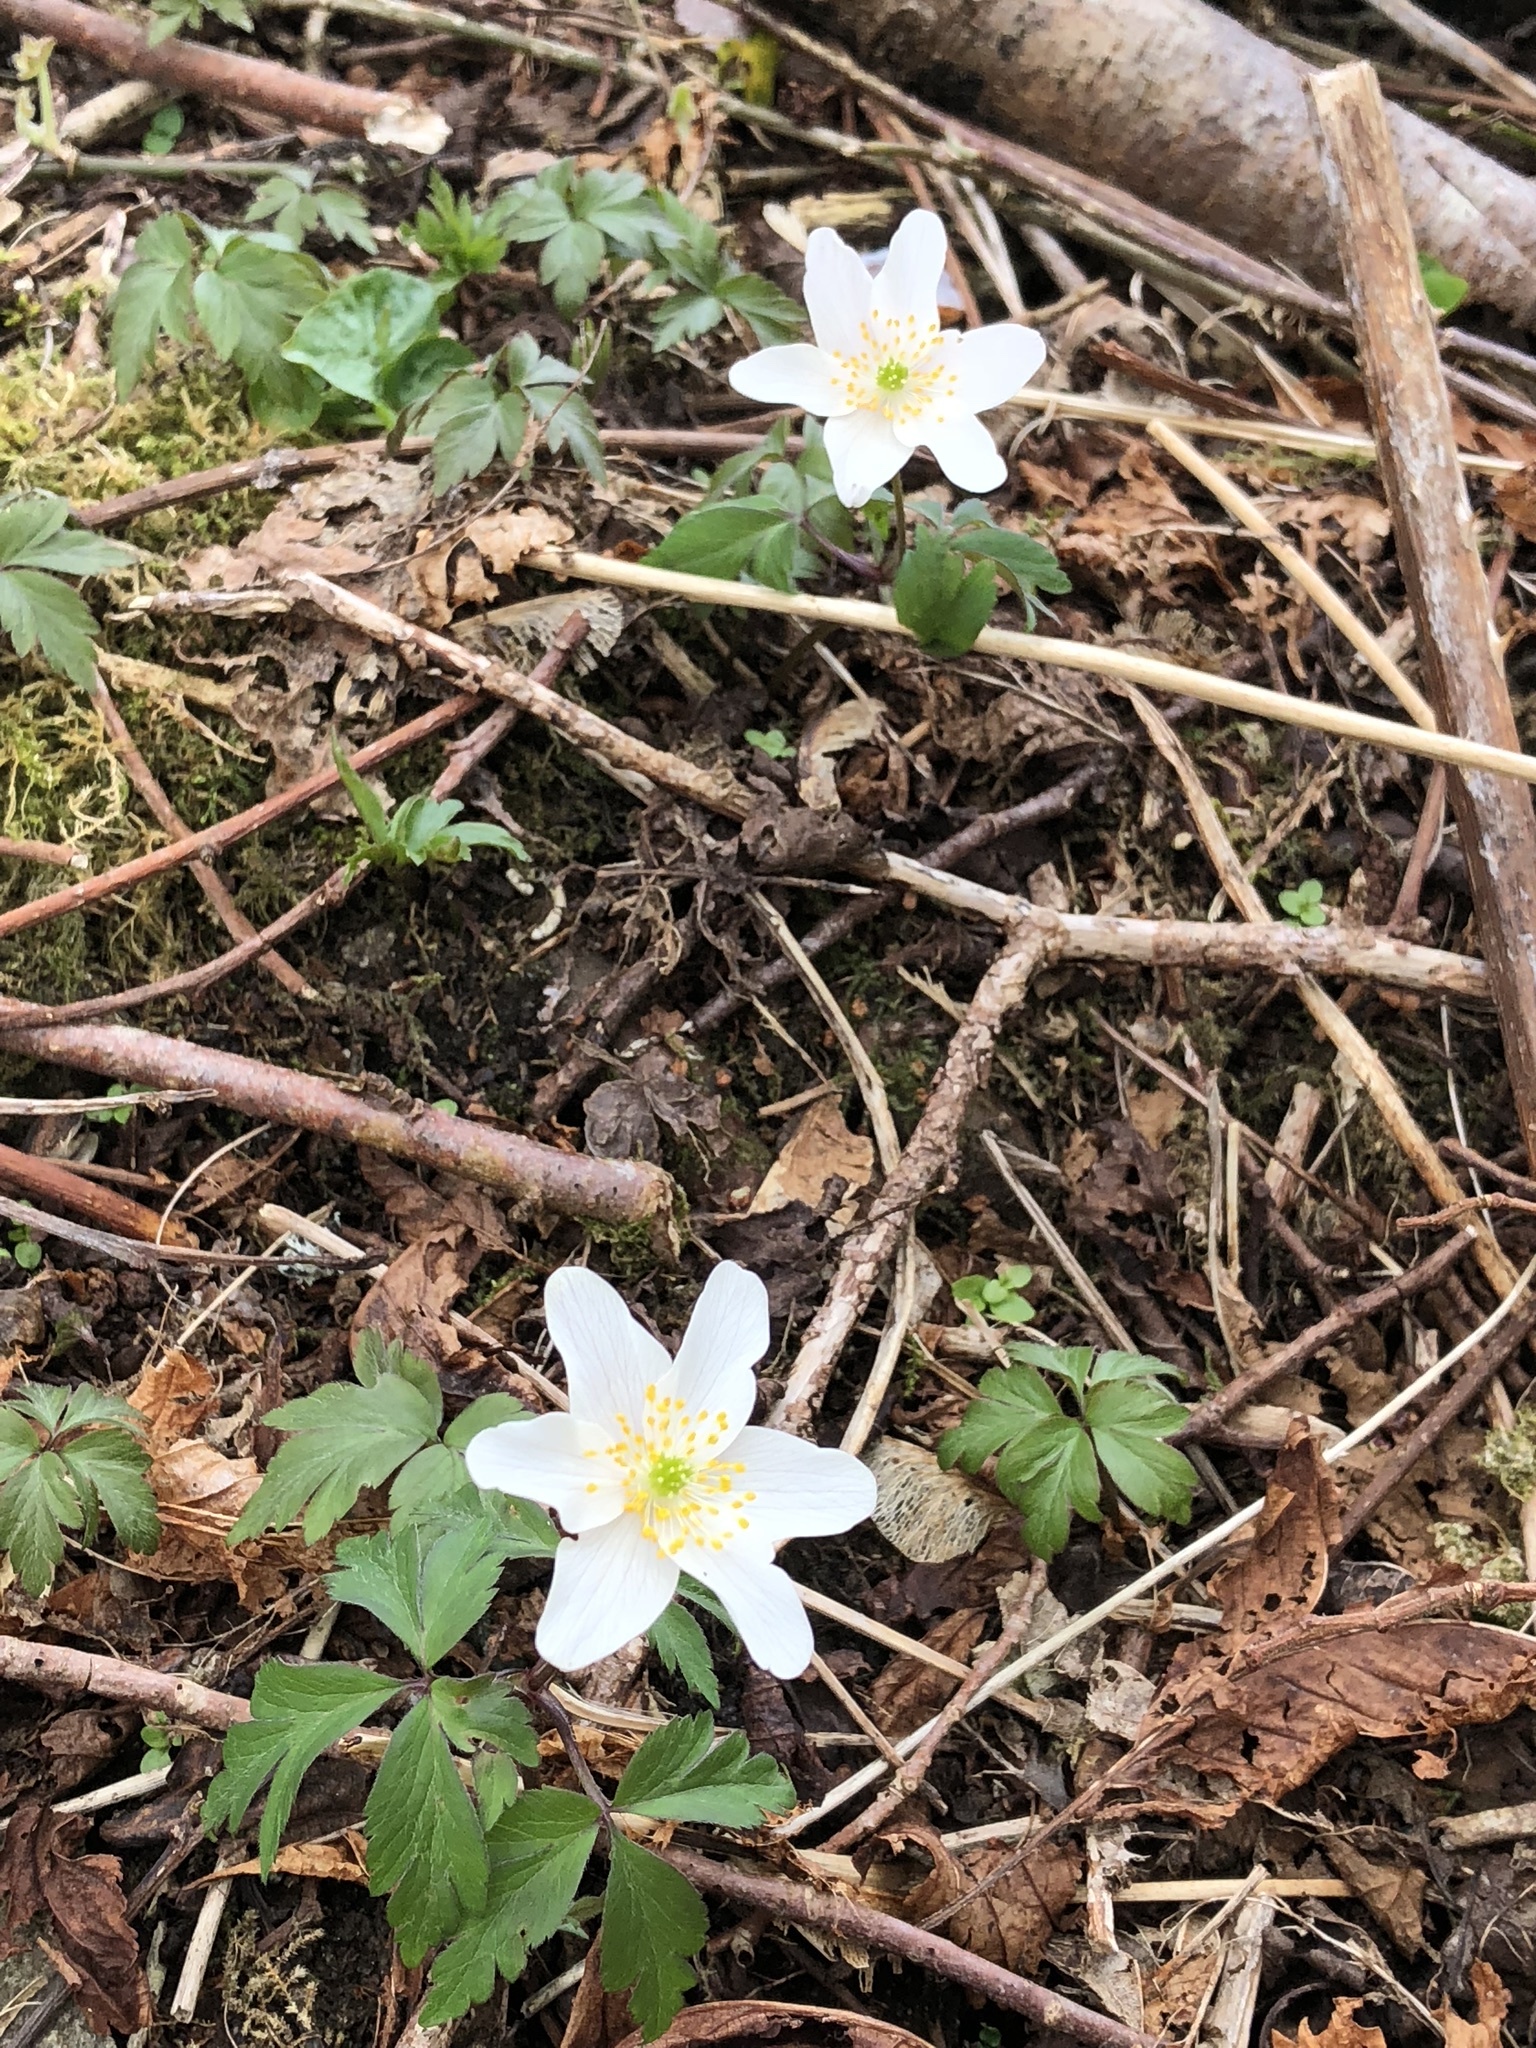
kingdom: Plantae
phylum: Tracheophyta
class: Magnoliopsida
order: Ranunculales
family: Ranunculaceae
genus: Anemone
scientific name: Anemone nemorosa
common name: Wood anemone
